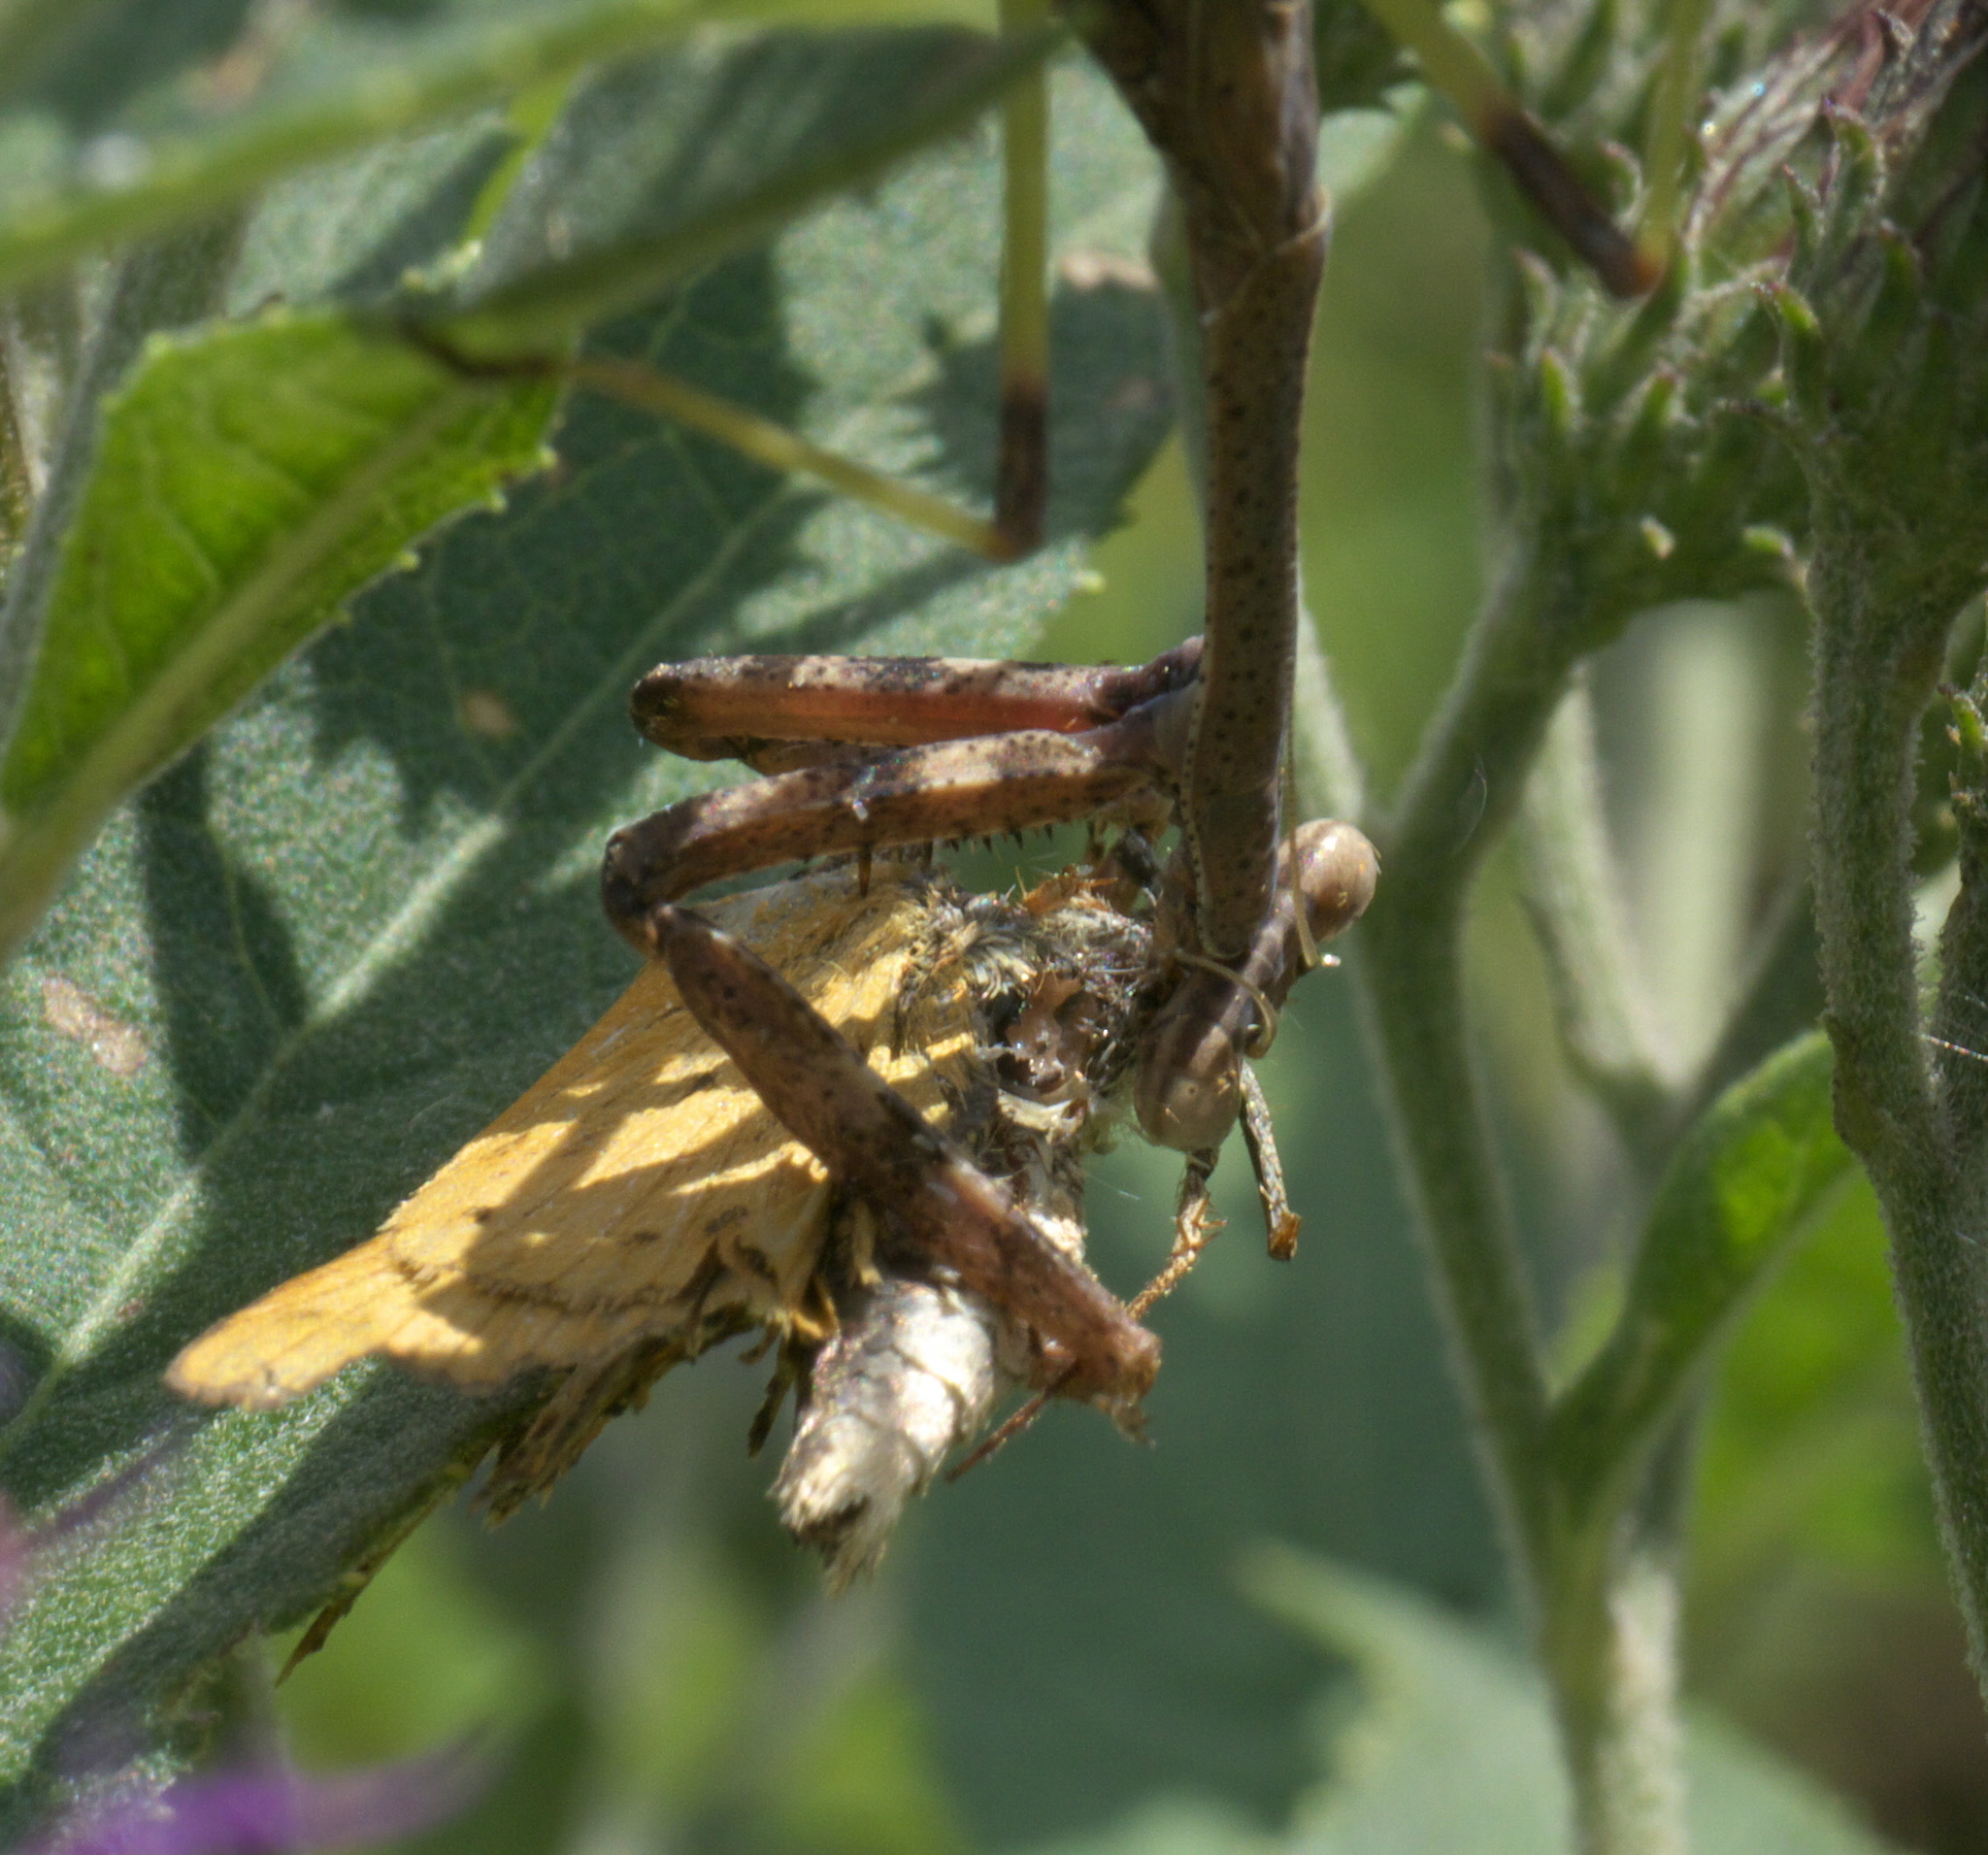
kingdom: Animalia
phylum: Arthropoda
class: Insecta
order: Mantodea
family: Mantidae
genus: Stagmomantis
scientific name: Stagmomantis carolina
